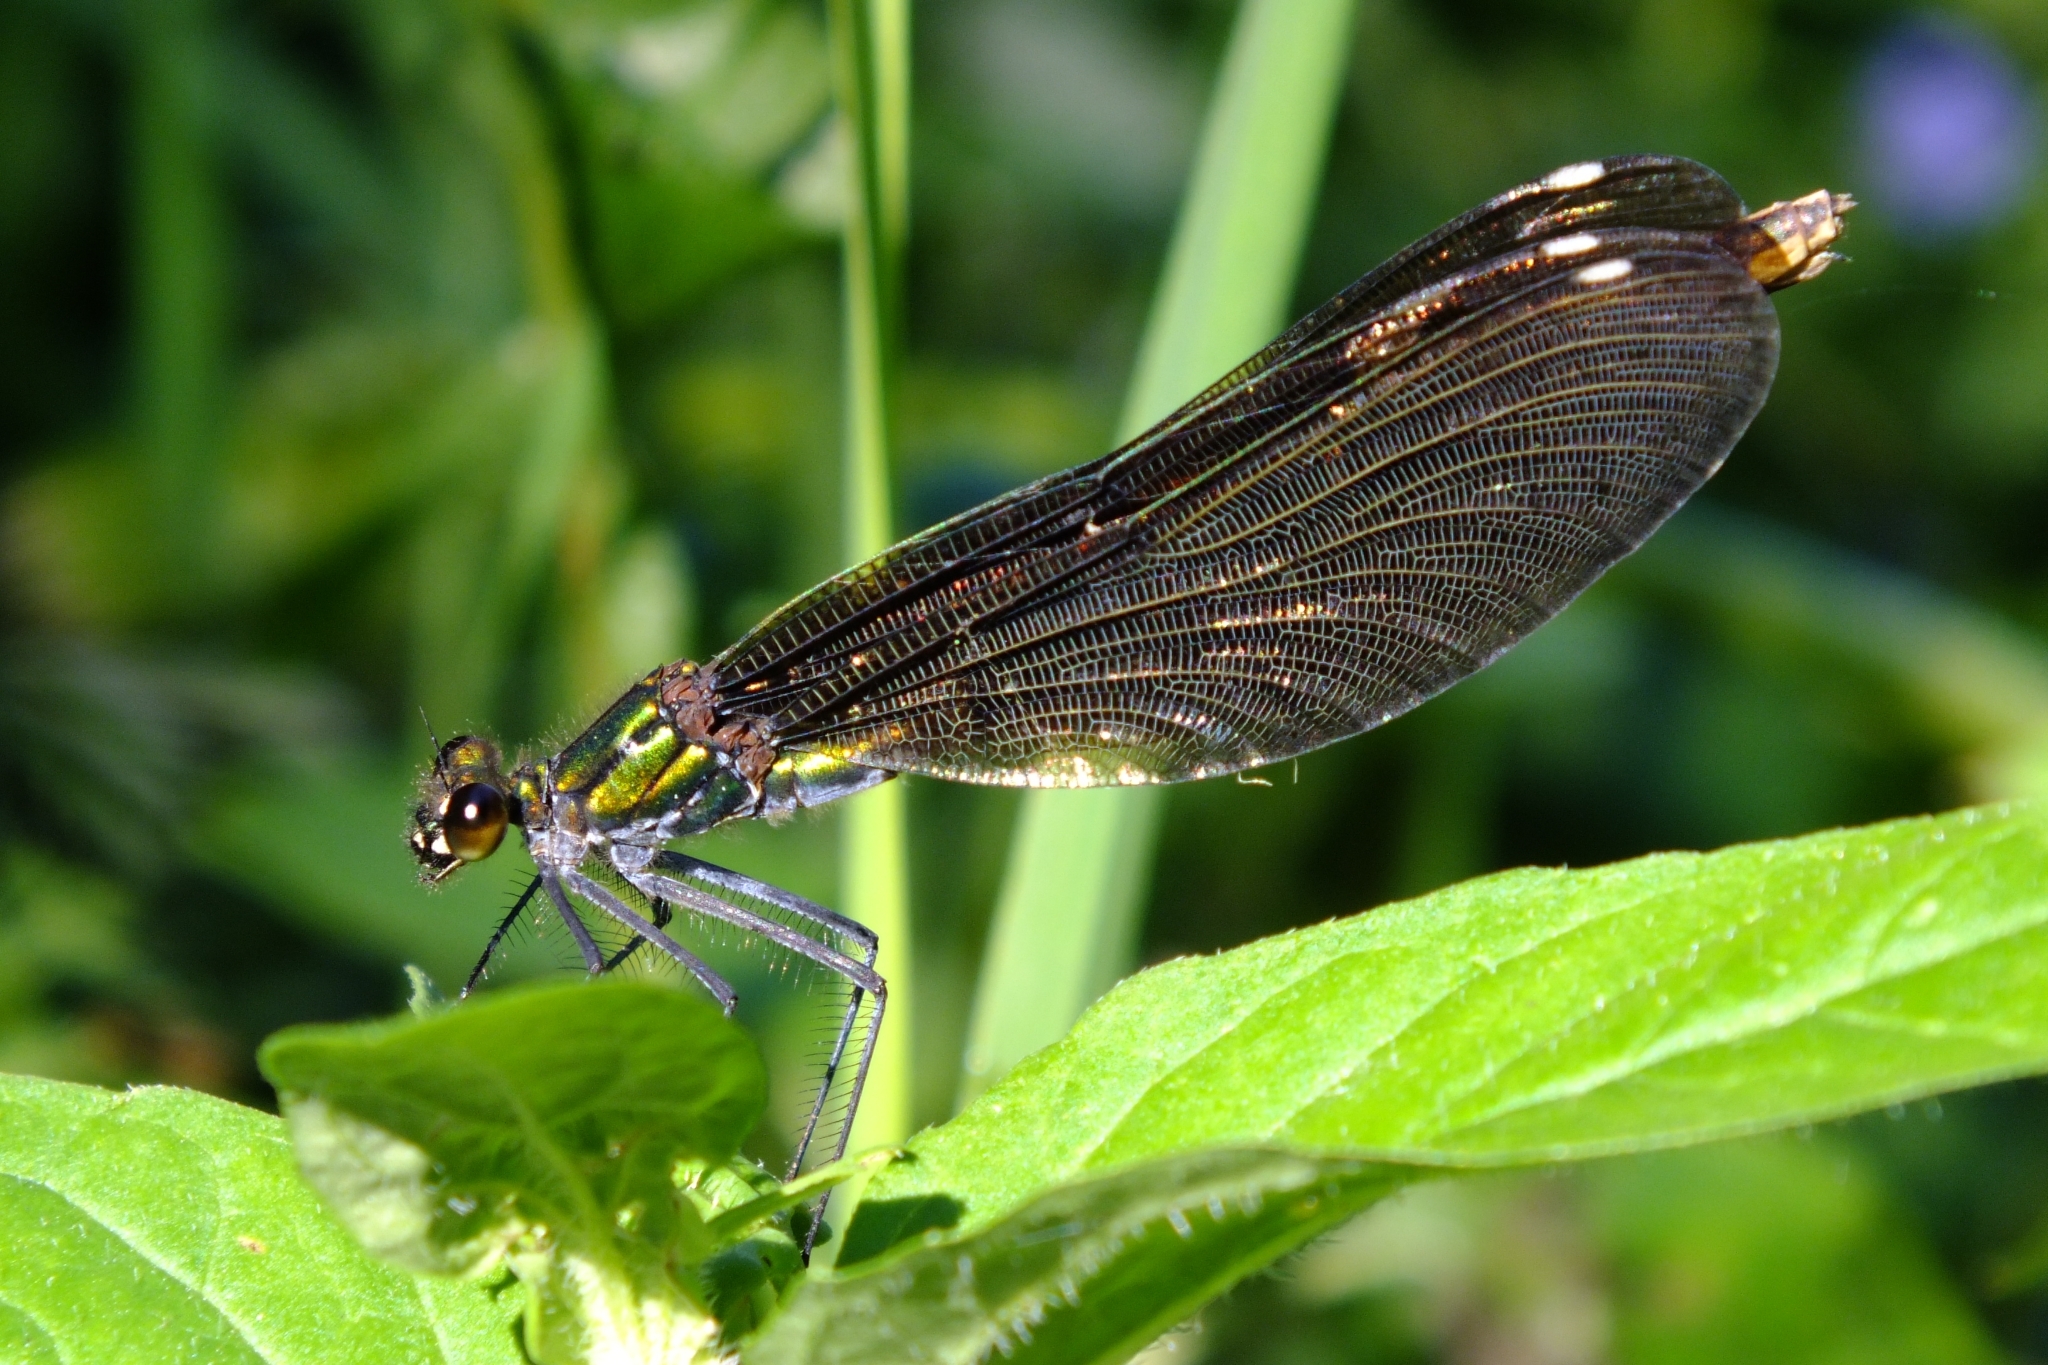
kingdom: Animalia
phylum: Arthropoda
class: Insecta
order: Odonata
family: Calopterygidae
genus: Calopteryx
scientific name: Calopteryx virgo
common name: Beautiful demoiselle
